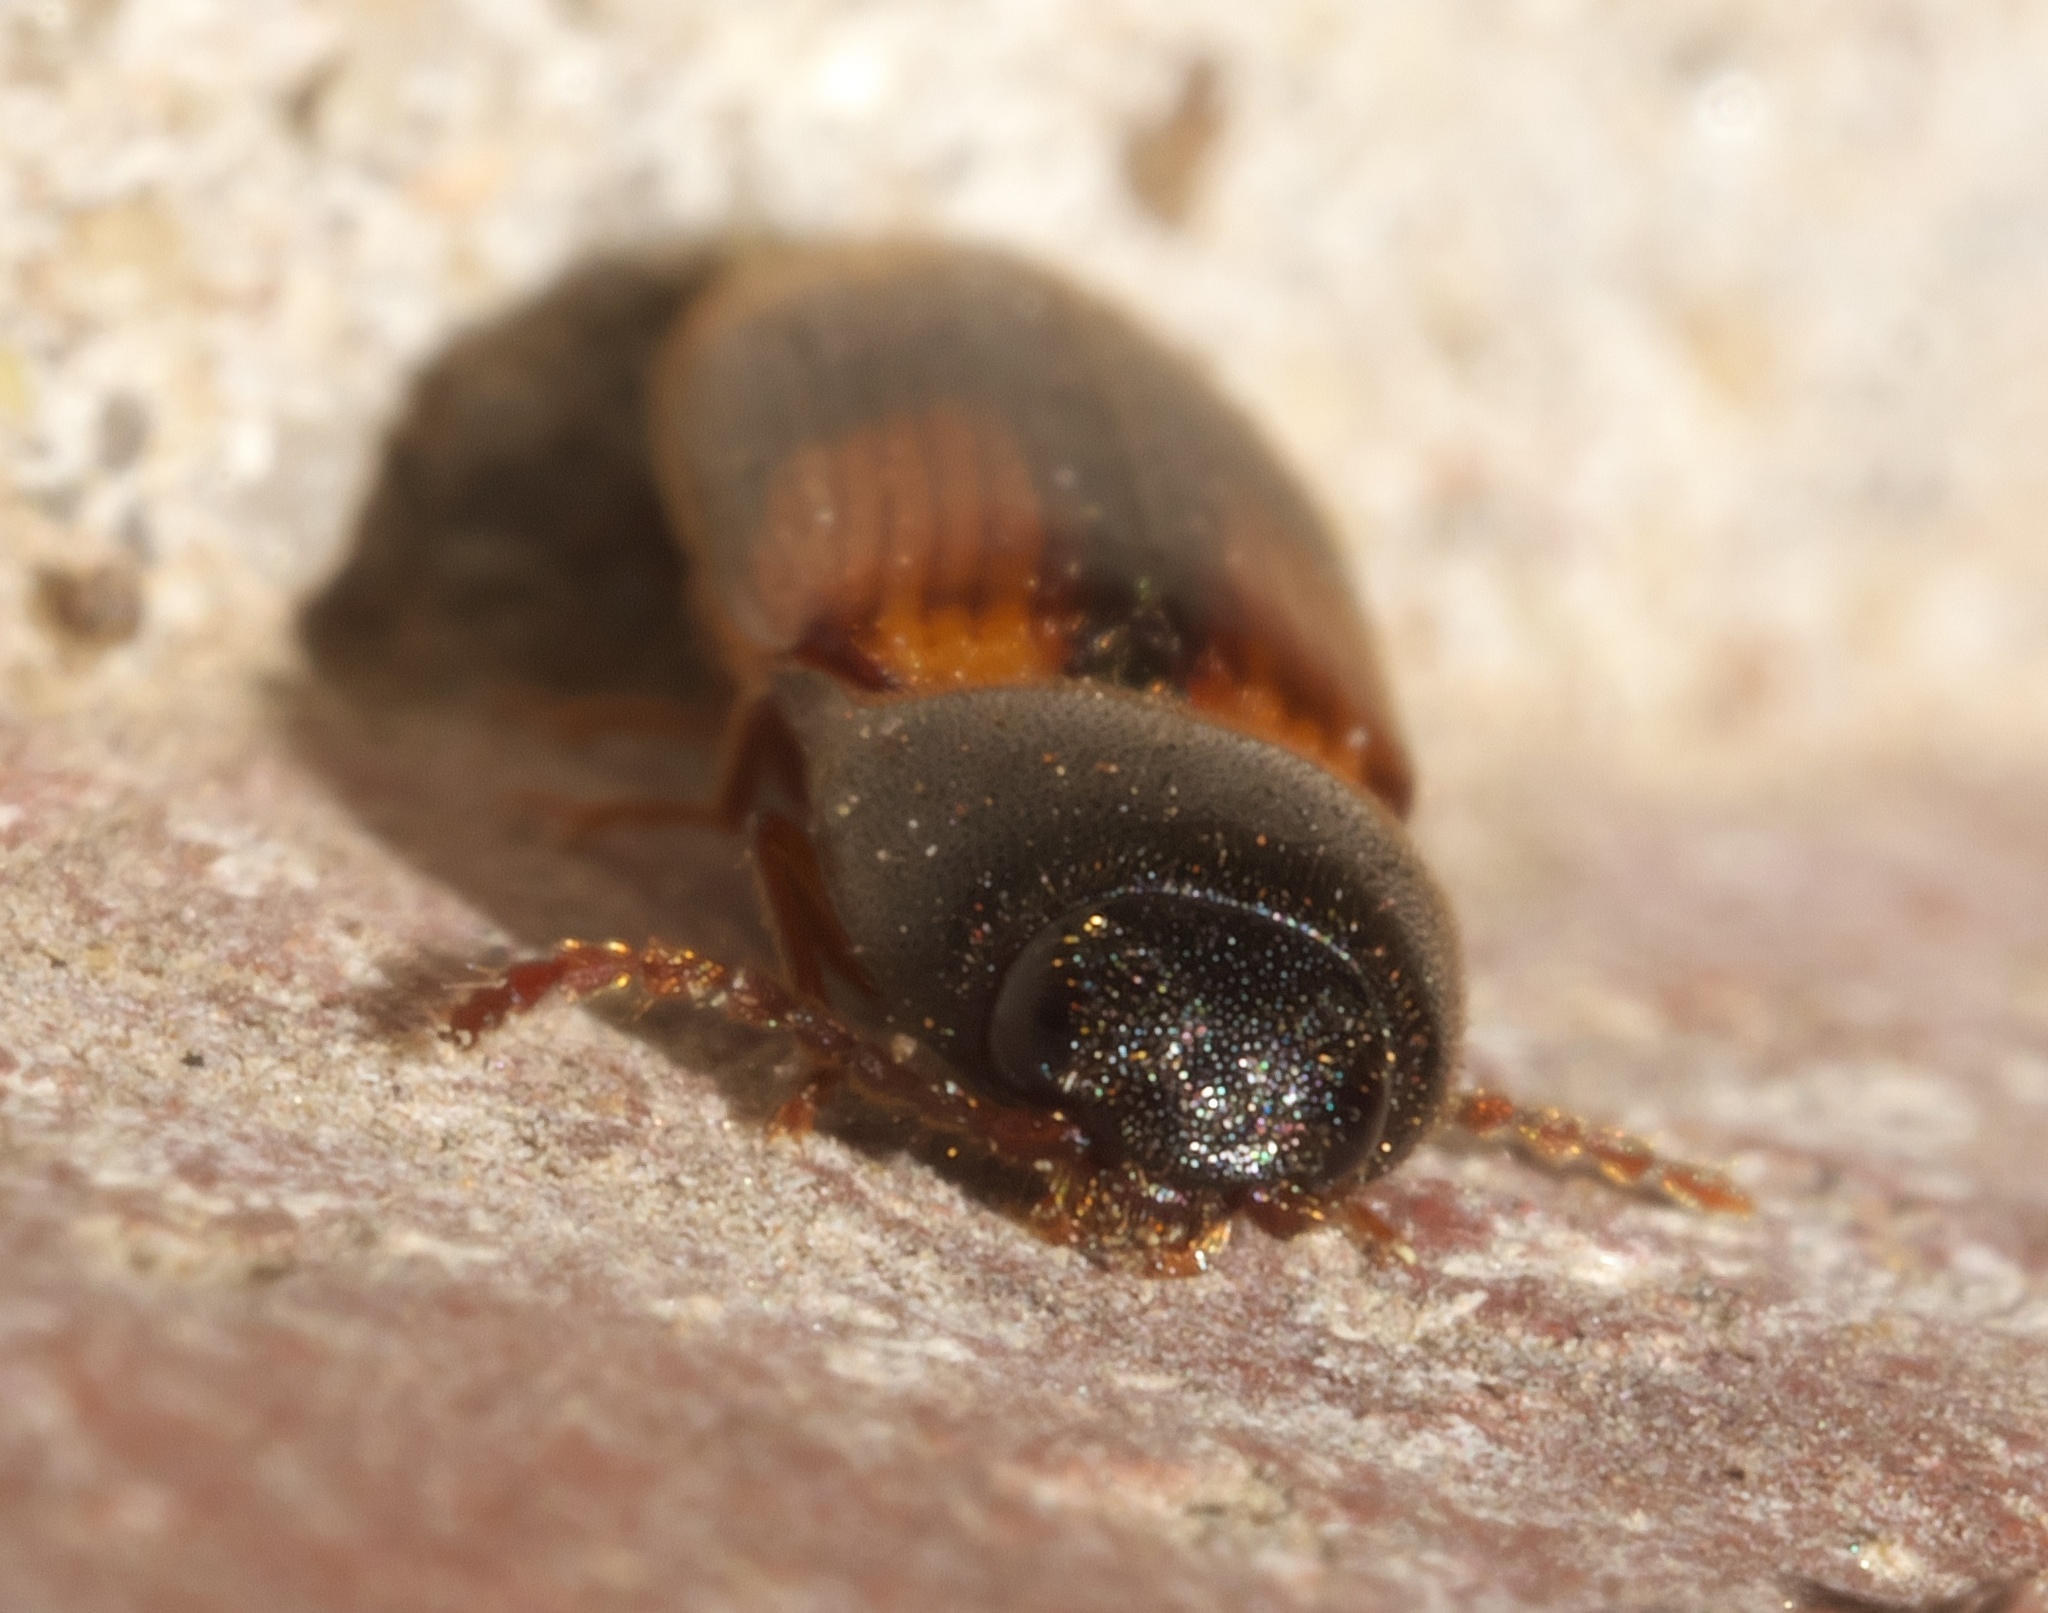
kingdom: Animalia
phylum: Arthropoda
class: Insecta
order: Coleoptera
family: Elateridae
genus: Anchastus
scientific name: Anchastus binus
